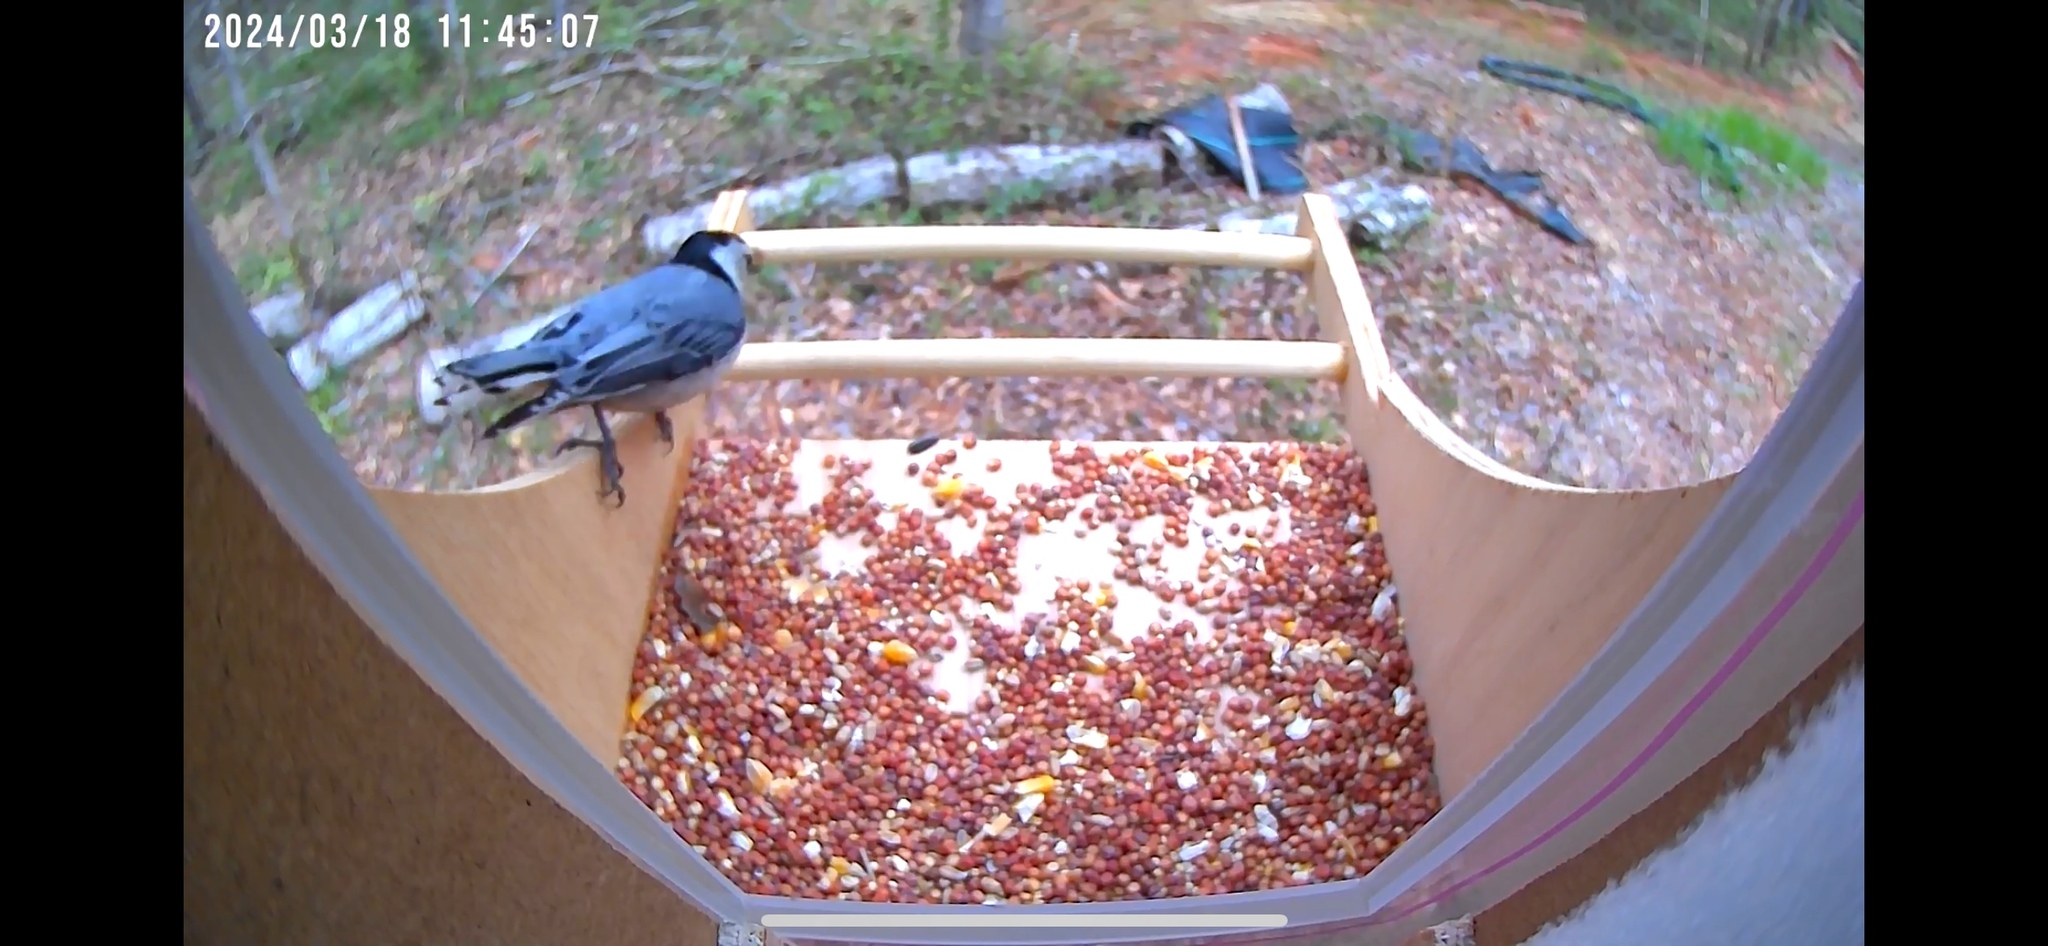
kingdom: Animalia
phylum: Chordata
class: Aves
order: Passeriformes
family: Sittidae
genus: Sitta
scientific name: Sitta carolinensis
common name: White-breasted nuthatch
